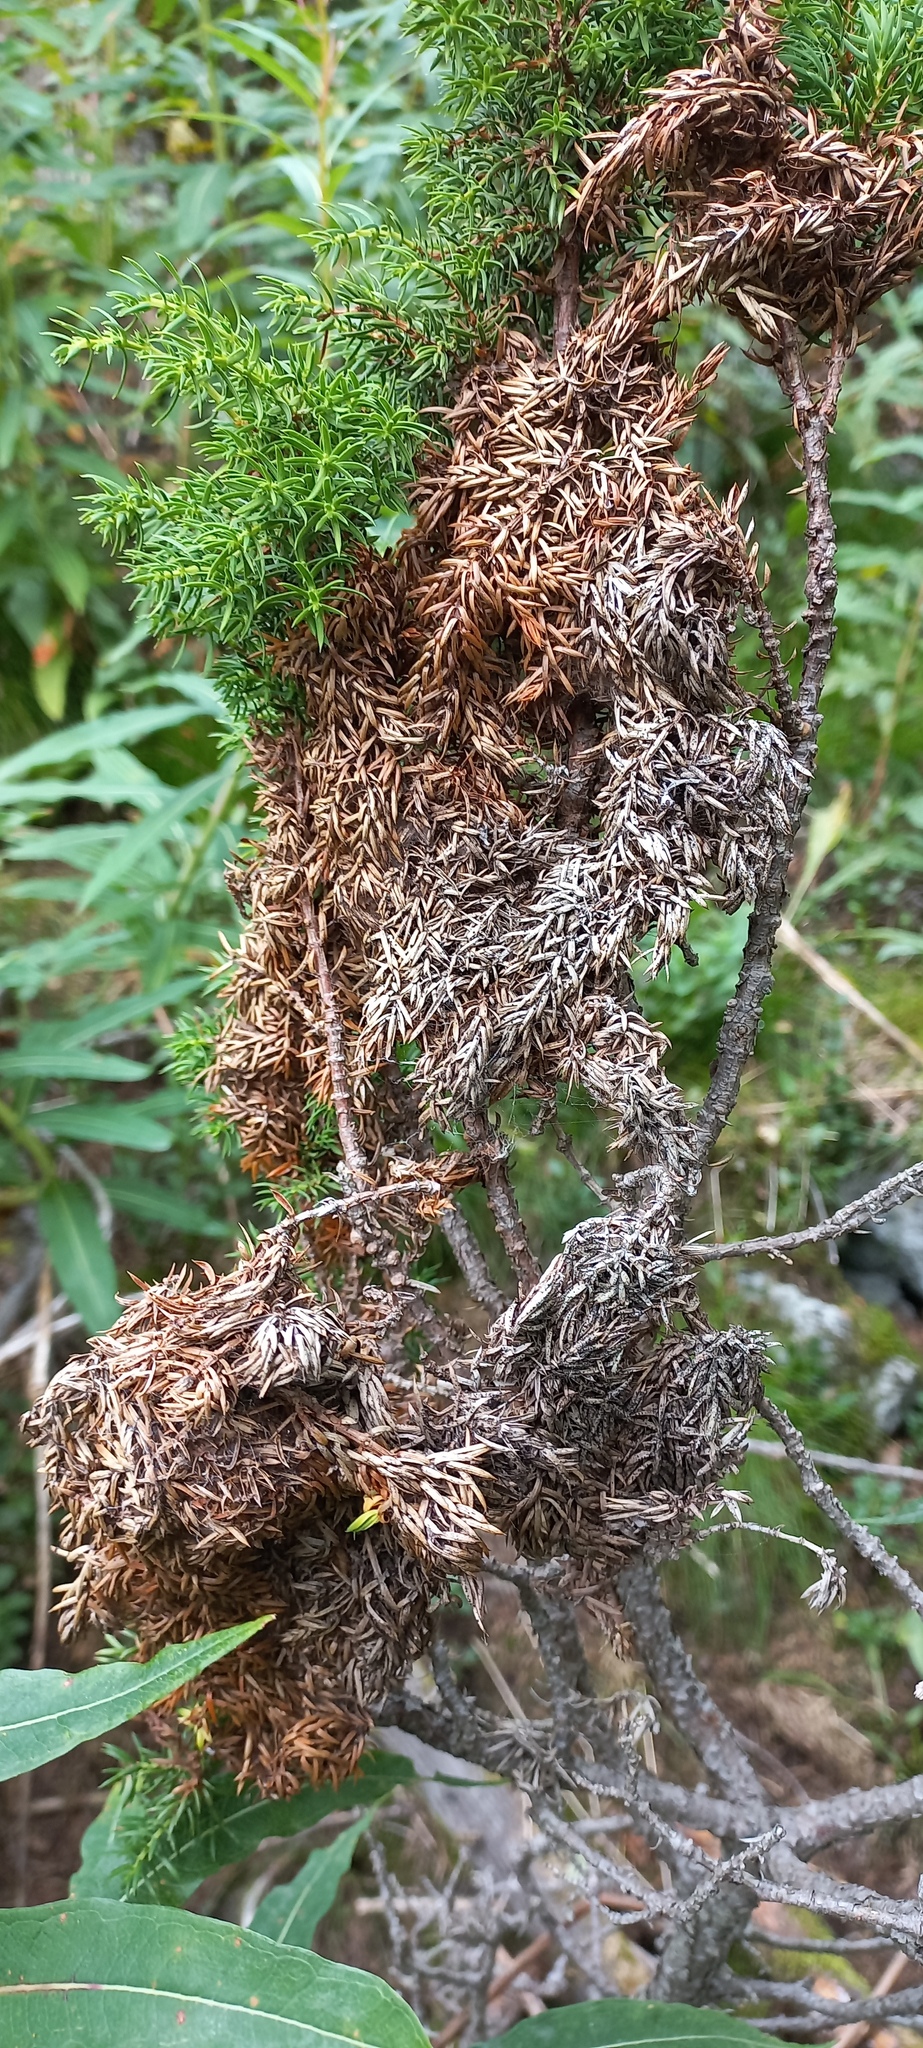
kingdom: Fungi
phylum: Ascomycota
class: Dothideomycetes
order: Pleosporales
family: Melanommataceae
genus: Herpotrichia
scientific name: Herpotrichia pinetorum
